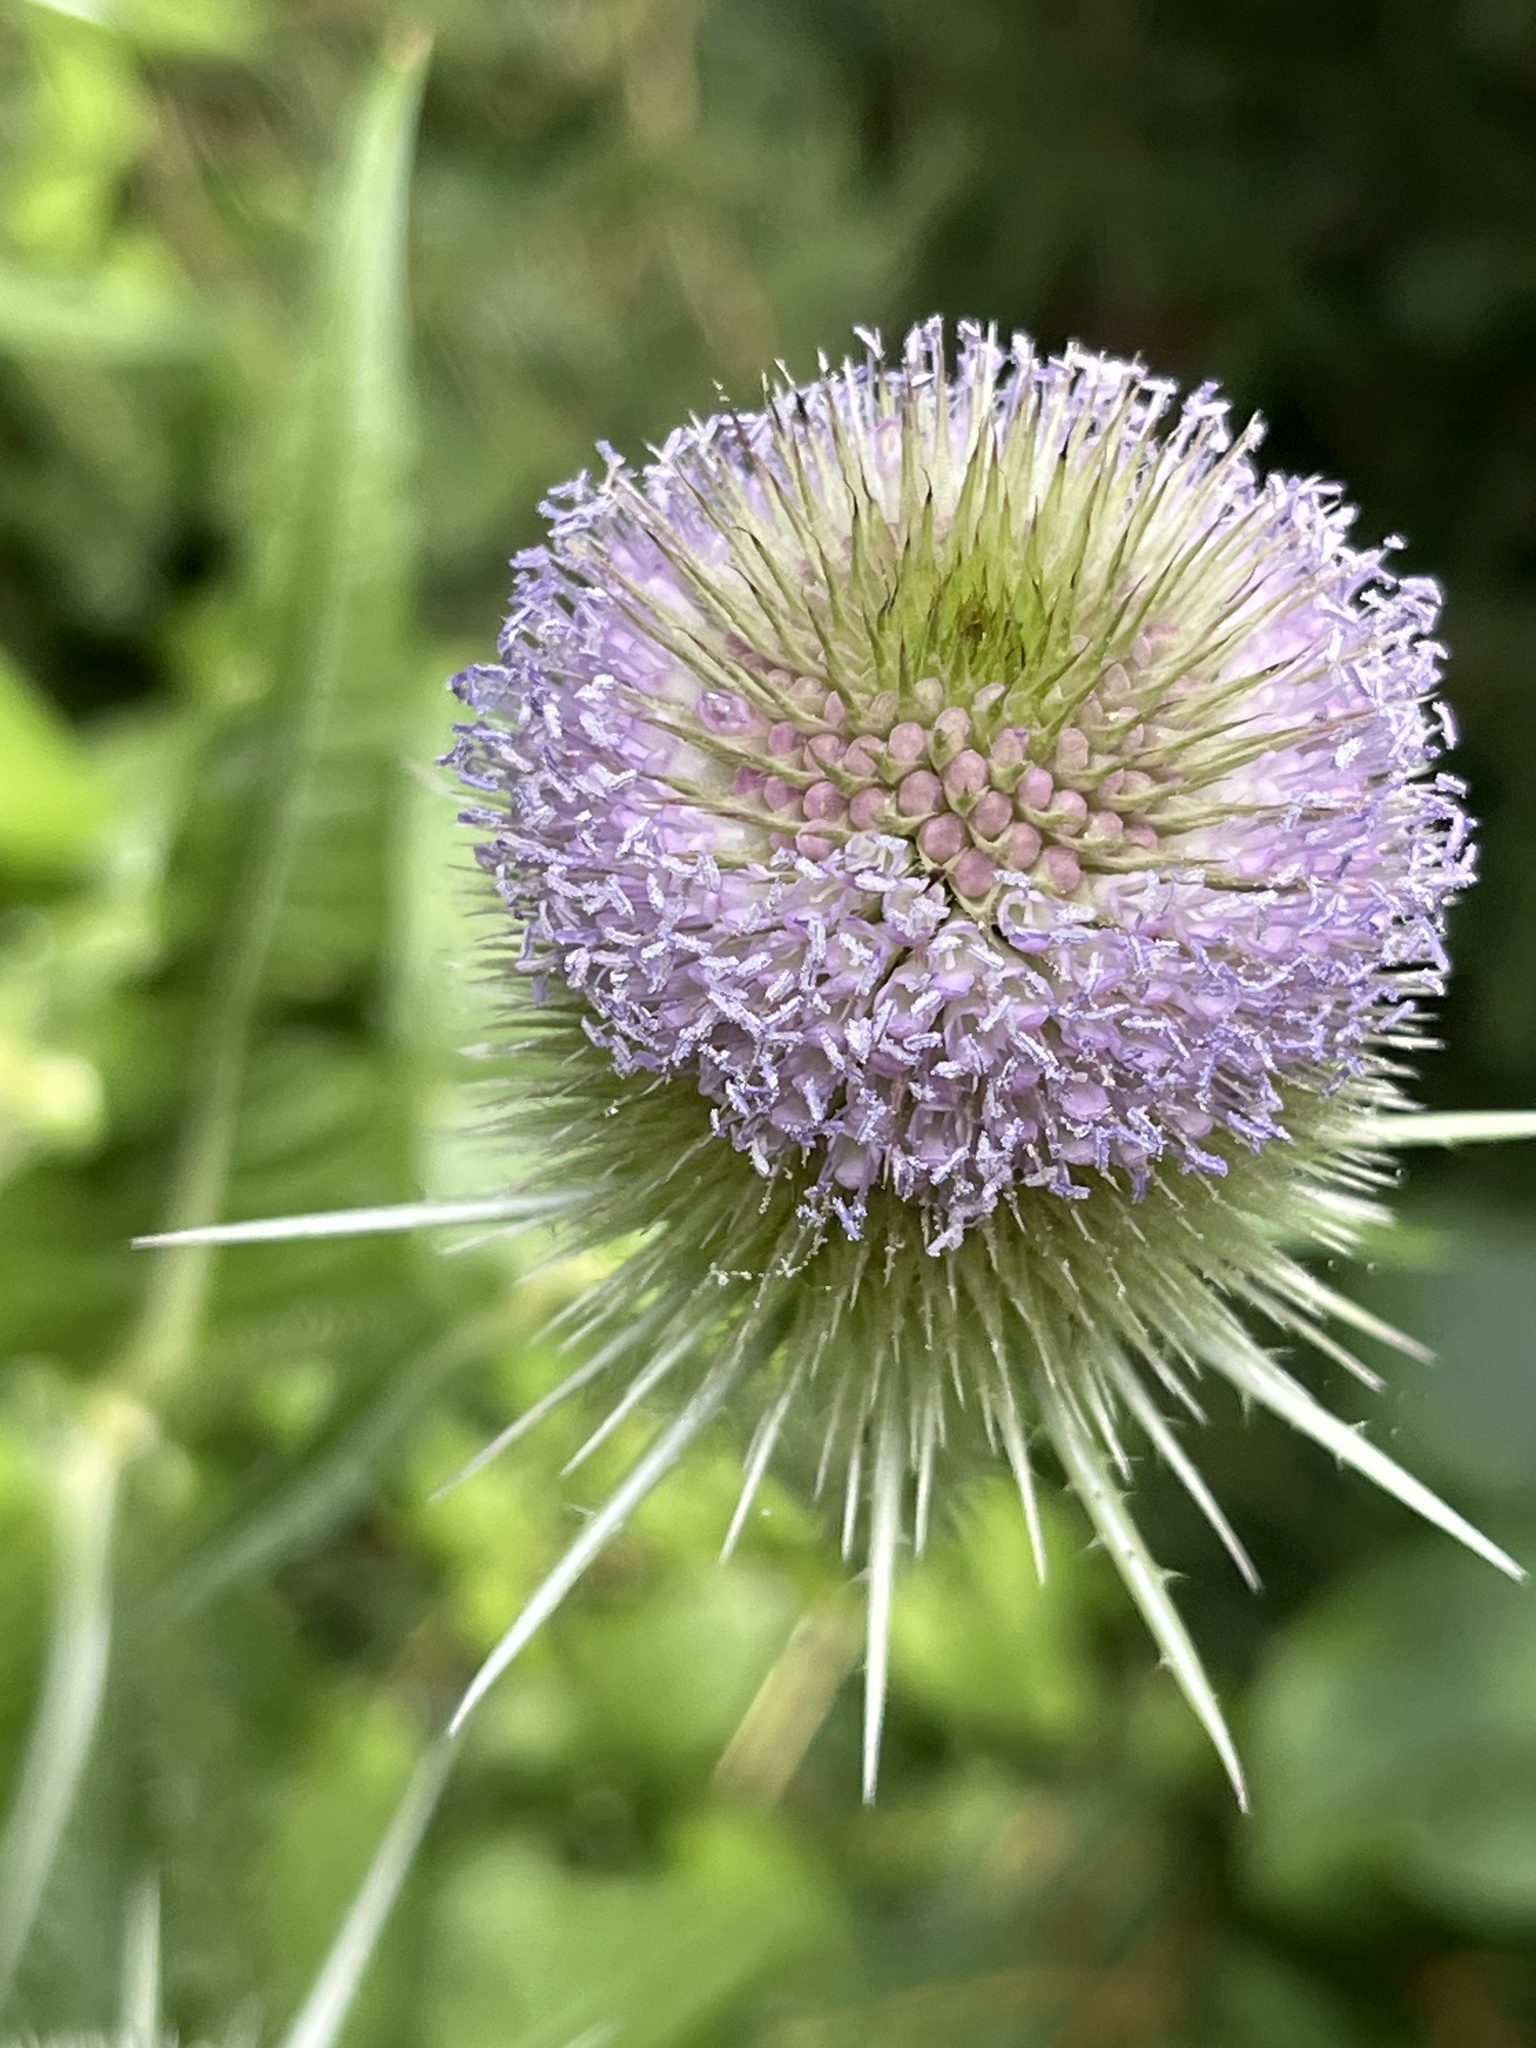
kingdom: Plantae
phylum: Tracheophyta
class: Magnoliopsida
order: Dipsacales
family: Caprifoliaceae
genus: Dipsacus
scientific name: Dipsacus fullonum
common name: Teasel
